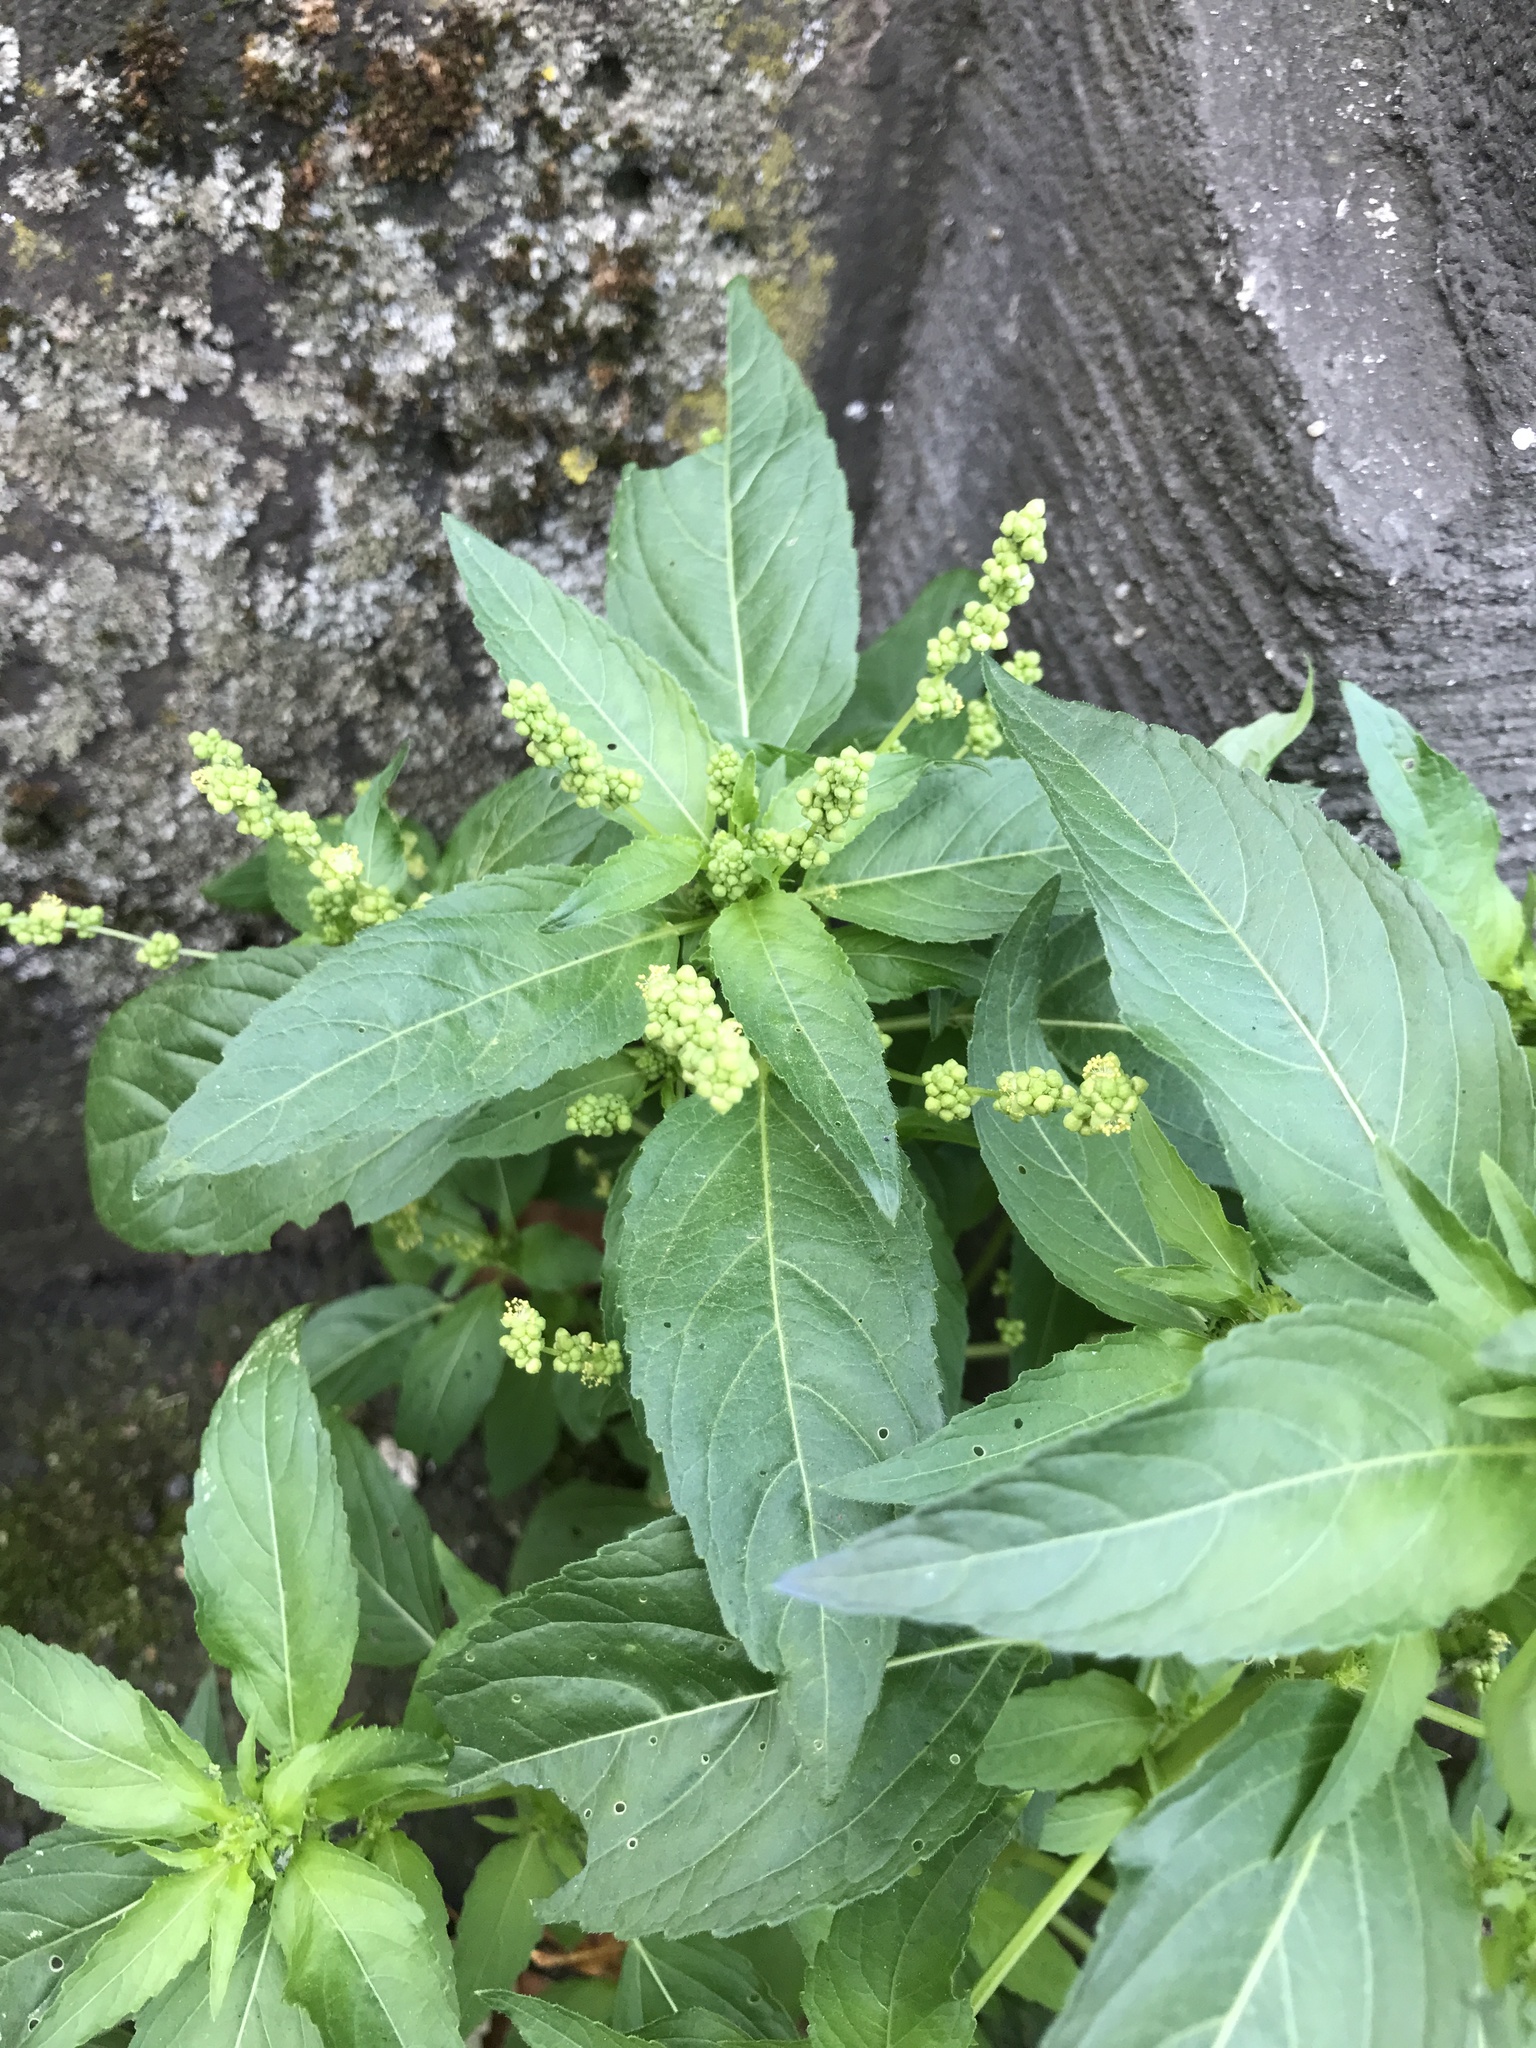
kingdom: Plantae
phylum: Tracheophyta
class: Magnoliopsida
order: Malpighiales
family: Euphorbiaceae
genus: Mercurialis
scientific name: Mercurialis annua
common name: Annual mercury
